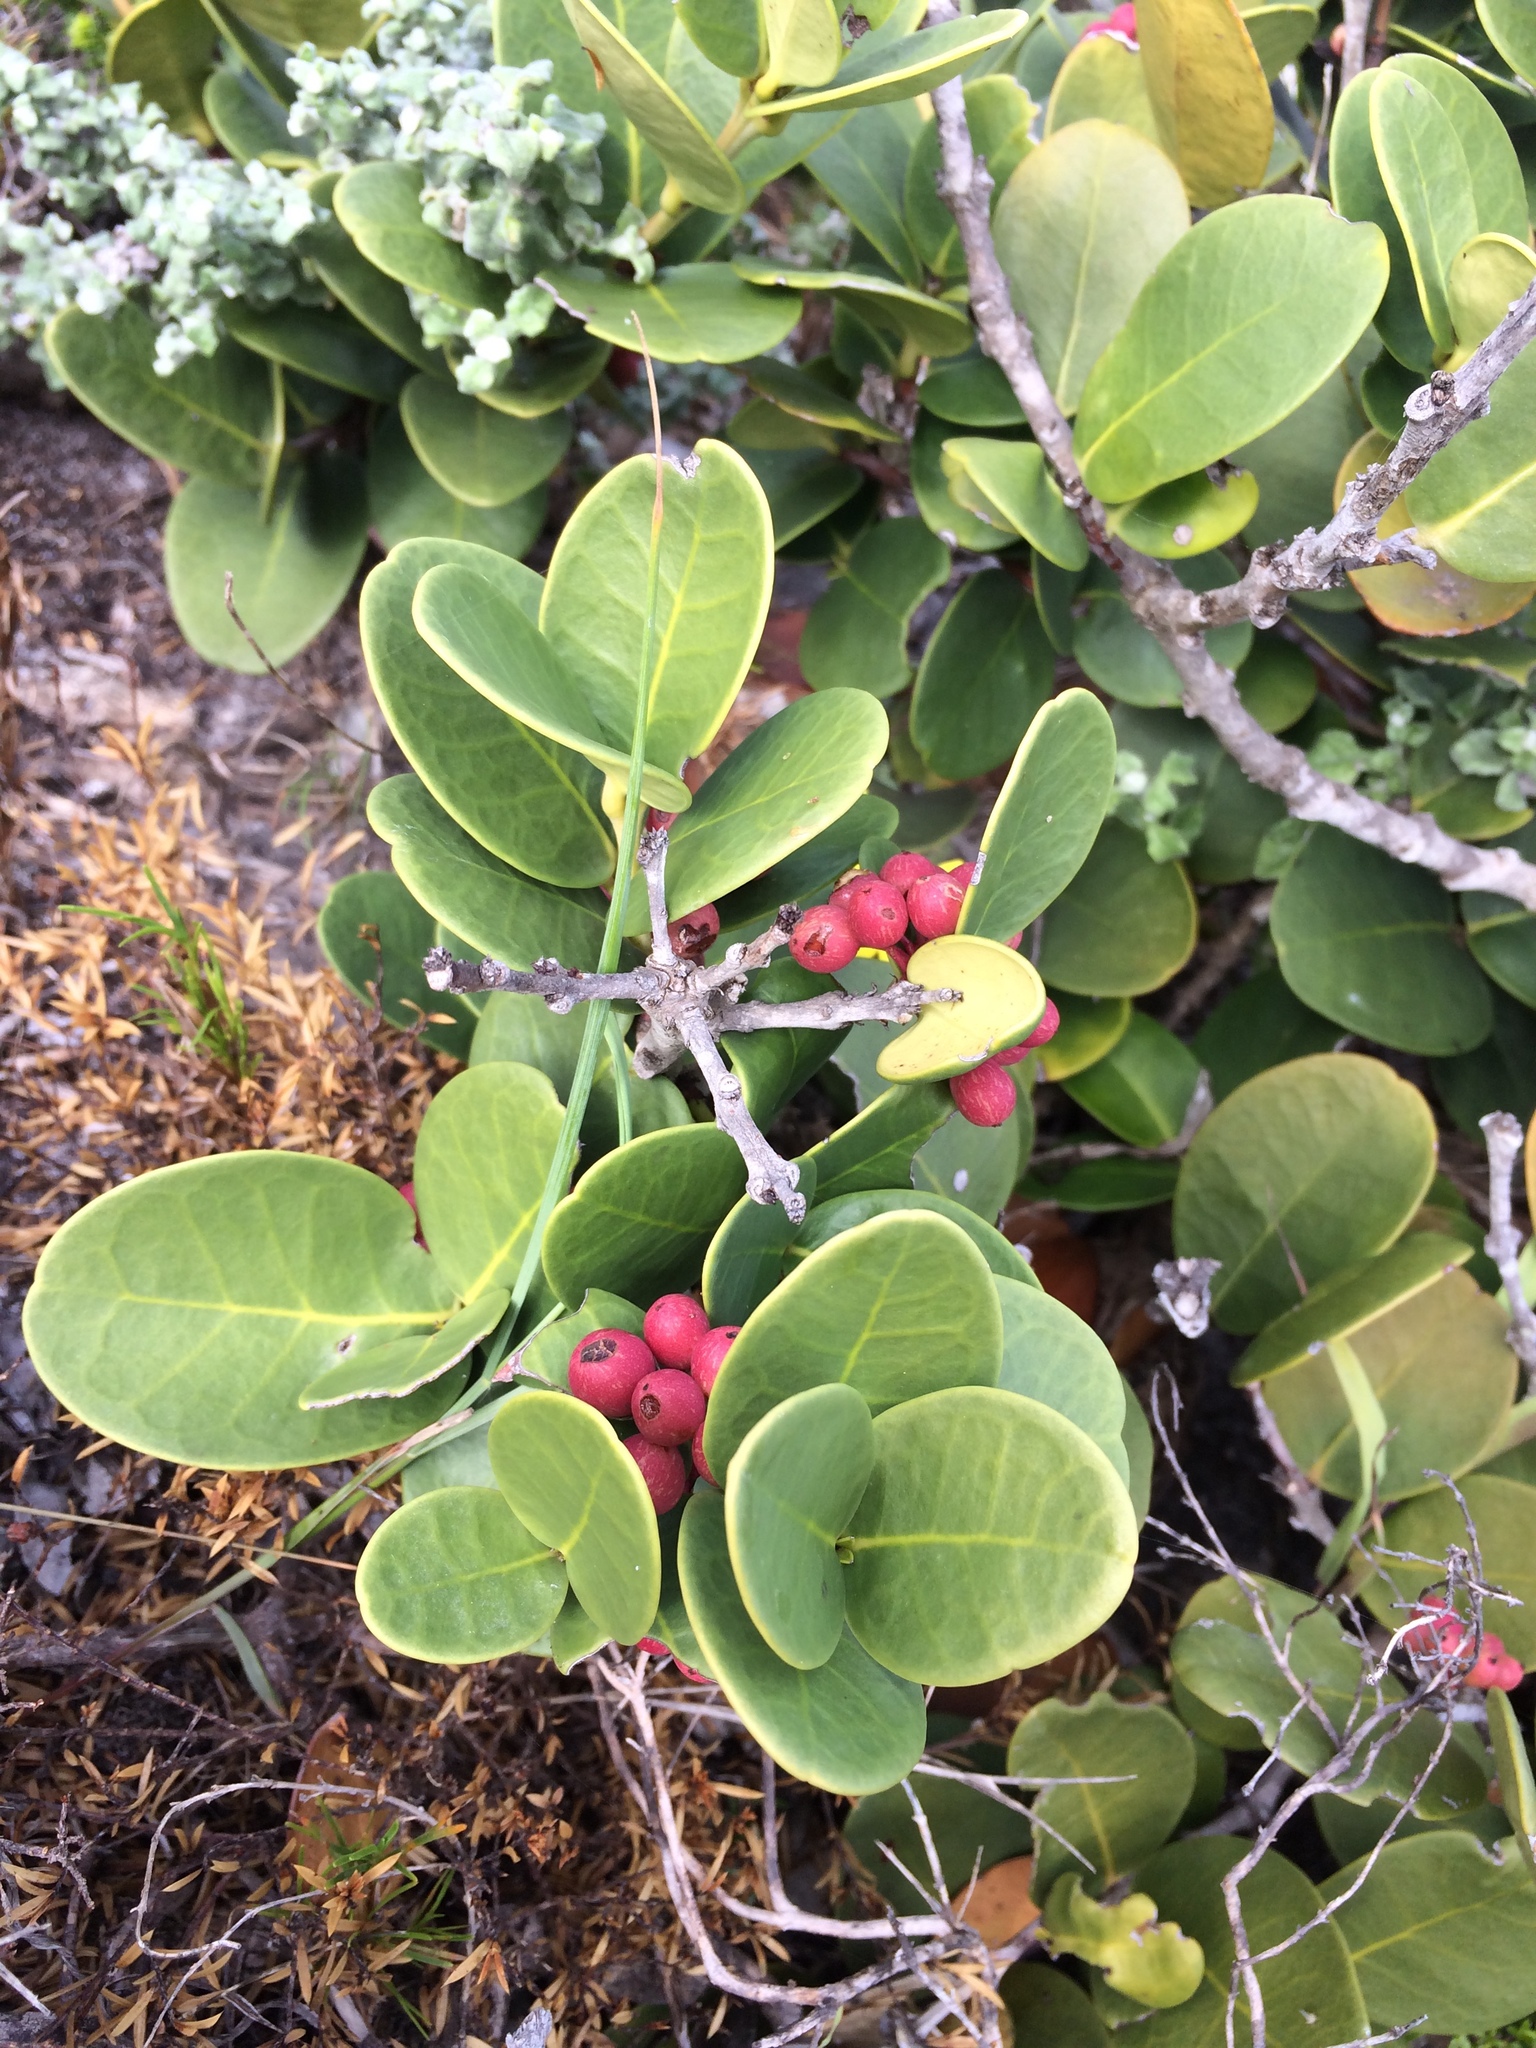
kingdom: Plantae
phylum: Tracheophyta
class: Magnoliopsida
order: Celastrales
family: Celastraceae
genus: Maurocenia
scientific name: Maurocenia frangula
